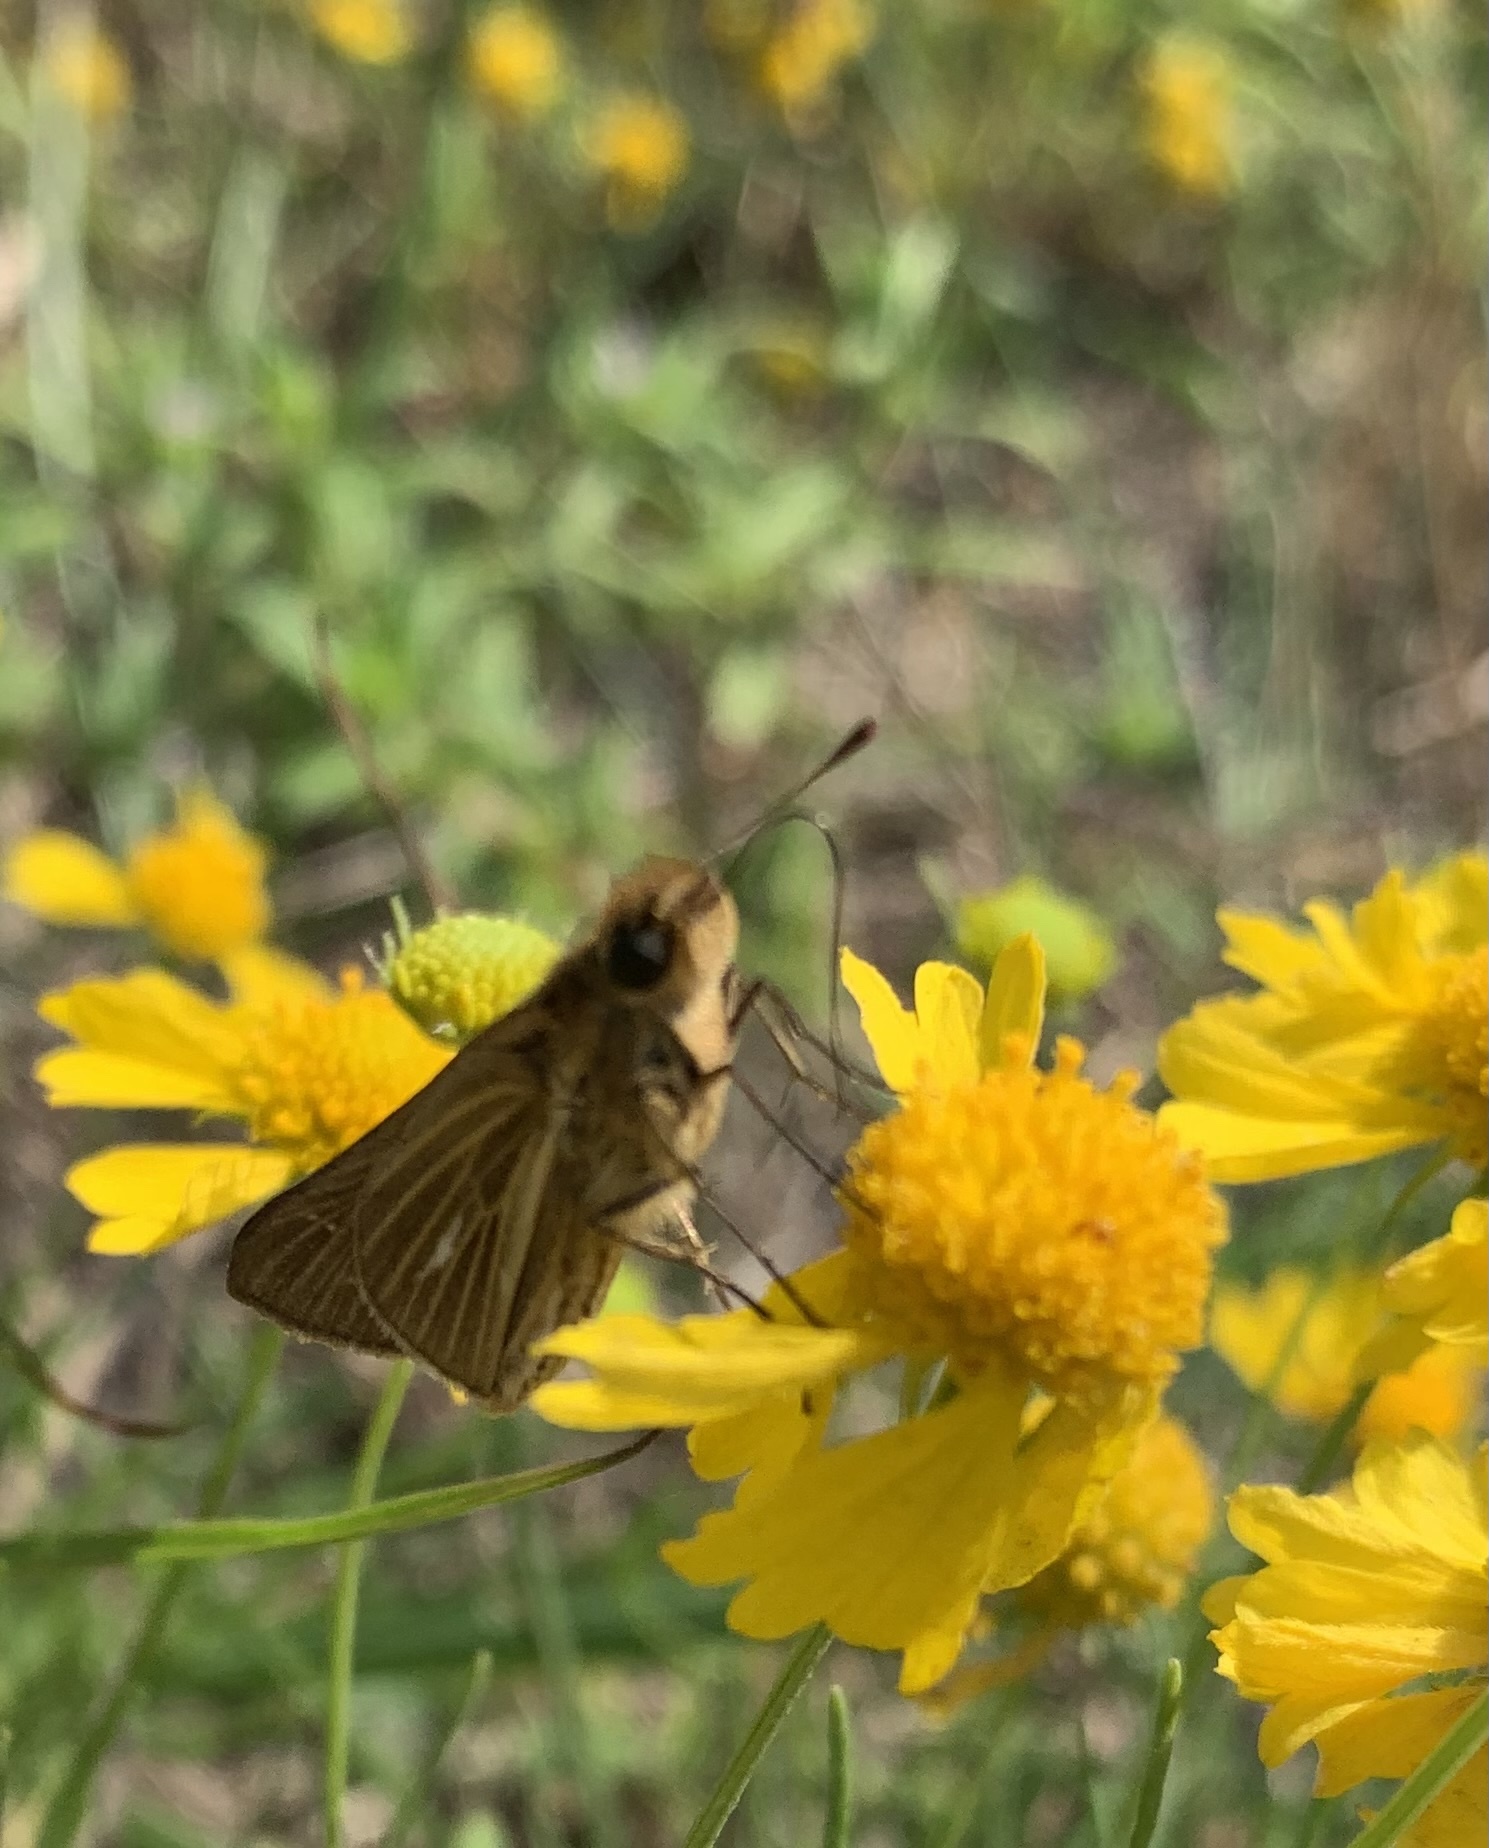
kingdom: Animalia
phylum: Arthropoda
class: Insecta
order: Lepidoptera
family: Hesperiidae
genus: Panoquina
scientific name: Panoquina panoquin
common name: Salt marsh skipper
